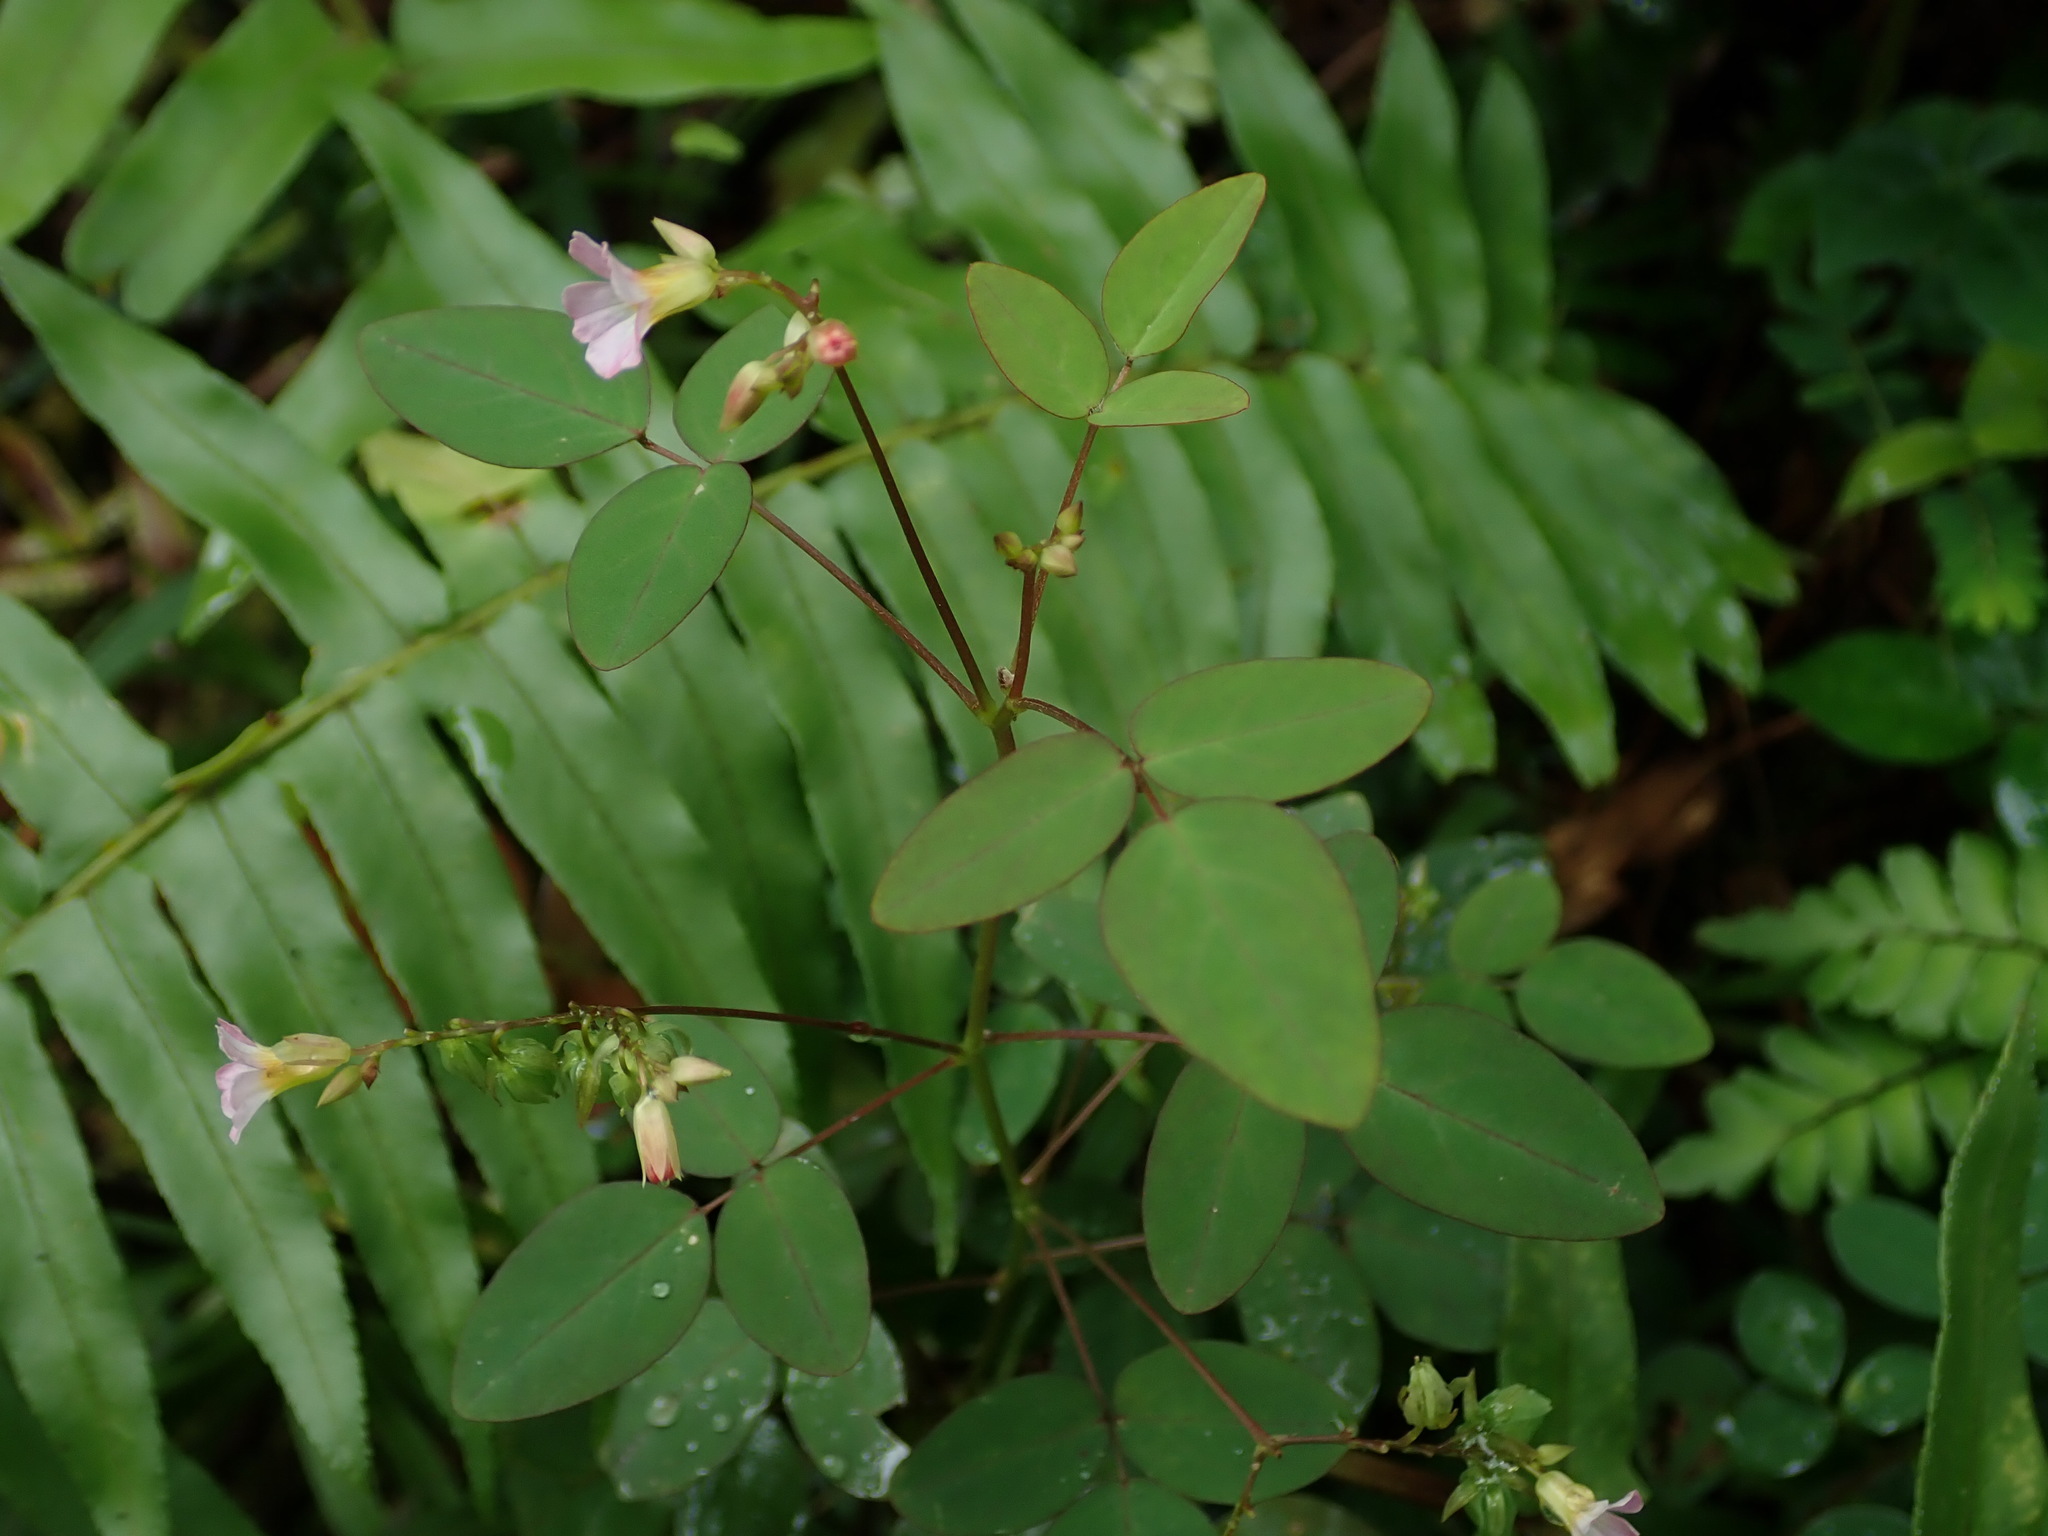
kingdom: Plantae
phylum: Tracheophyta
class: Magnoliopsida
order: Oxalidales
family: Oxalidaceae
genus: Oxalis
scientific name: Oxalis barrelieri
